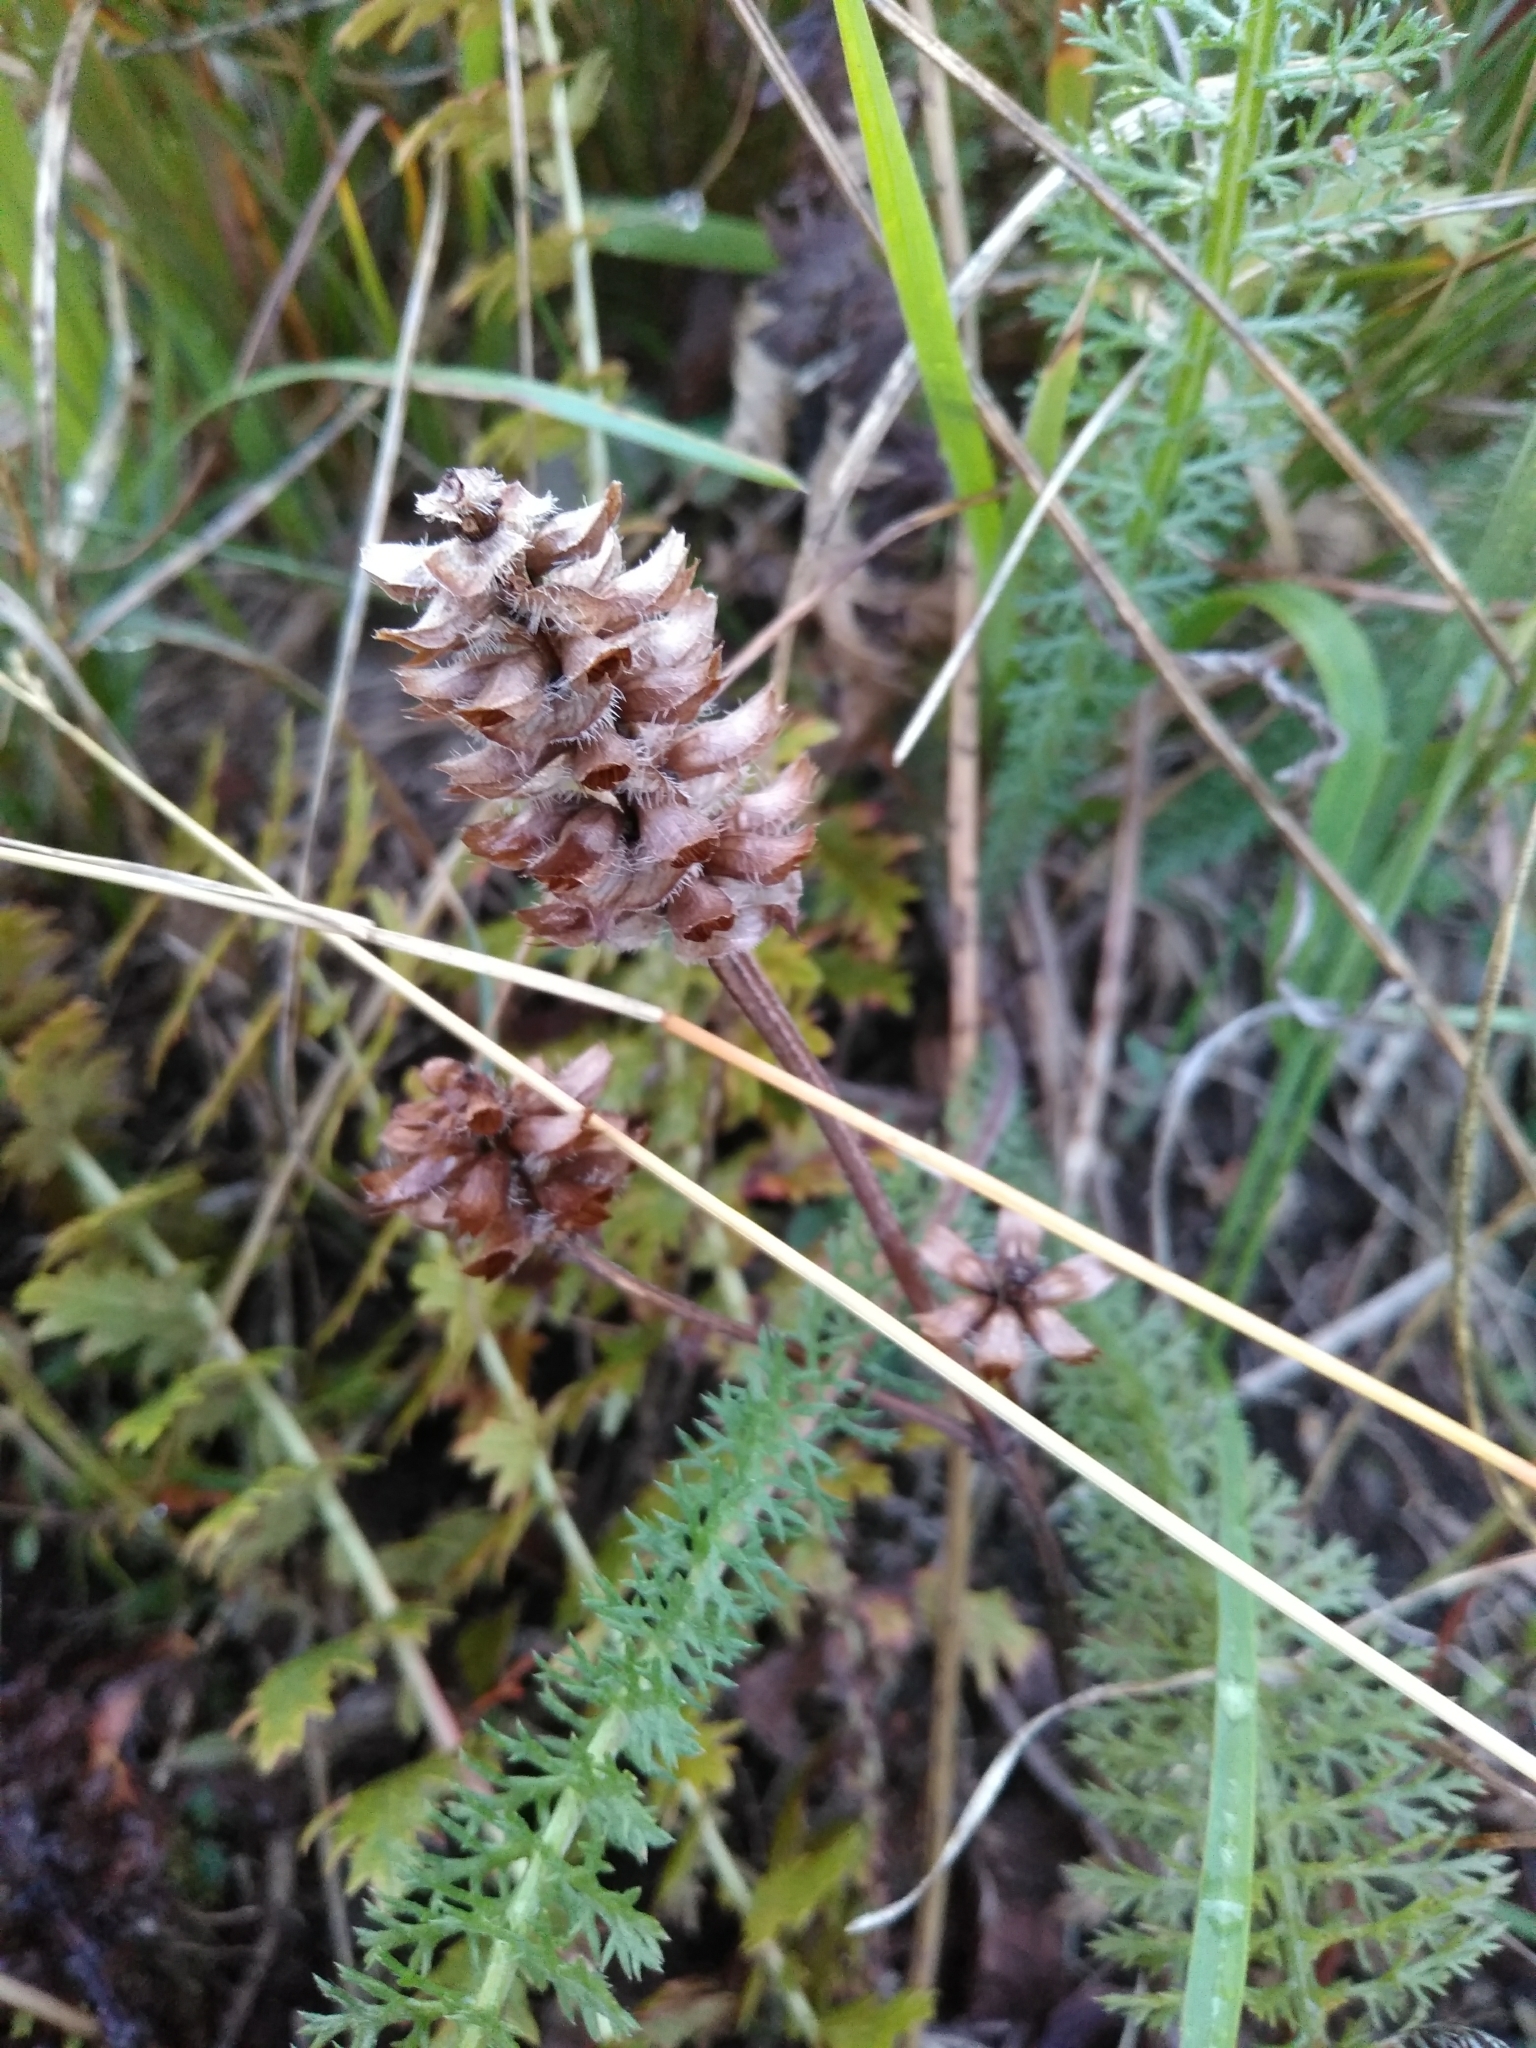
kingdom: Plantae
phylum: Tracheophyta
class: Magnoliopsida
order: Lamiales
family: Lamiaceae
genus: Prunella
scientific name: Prunella vulgaris
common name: Heal-all
